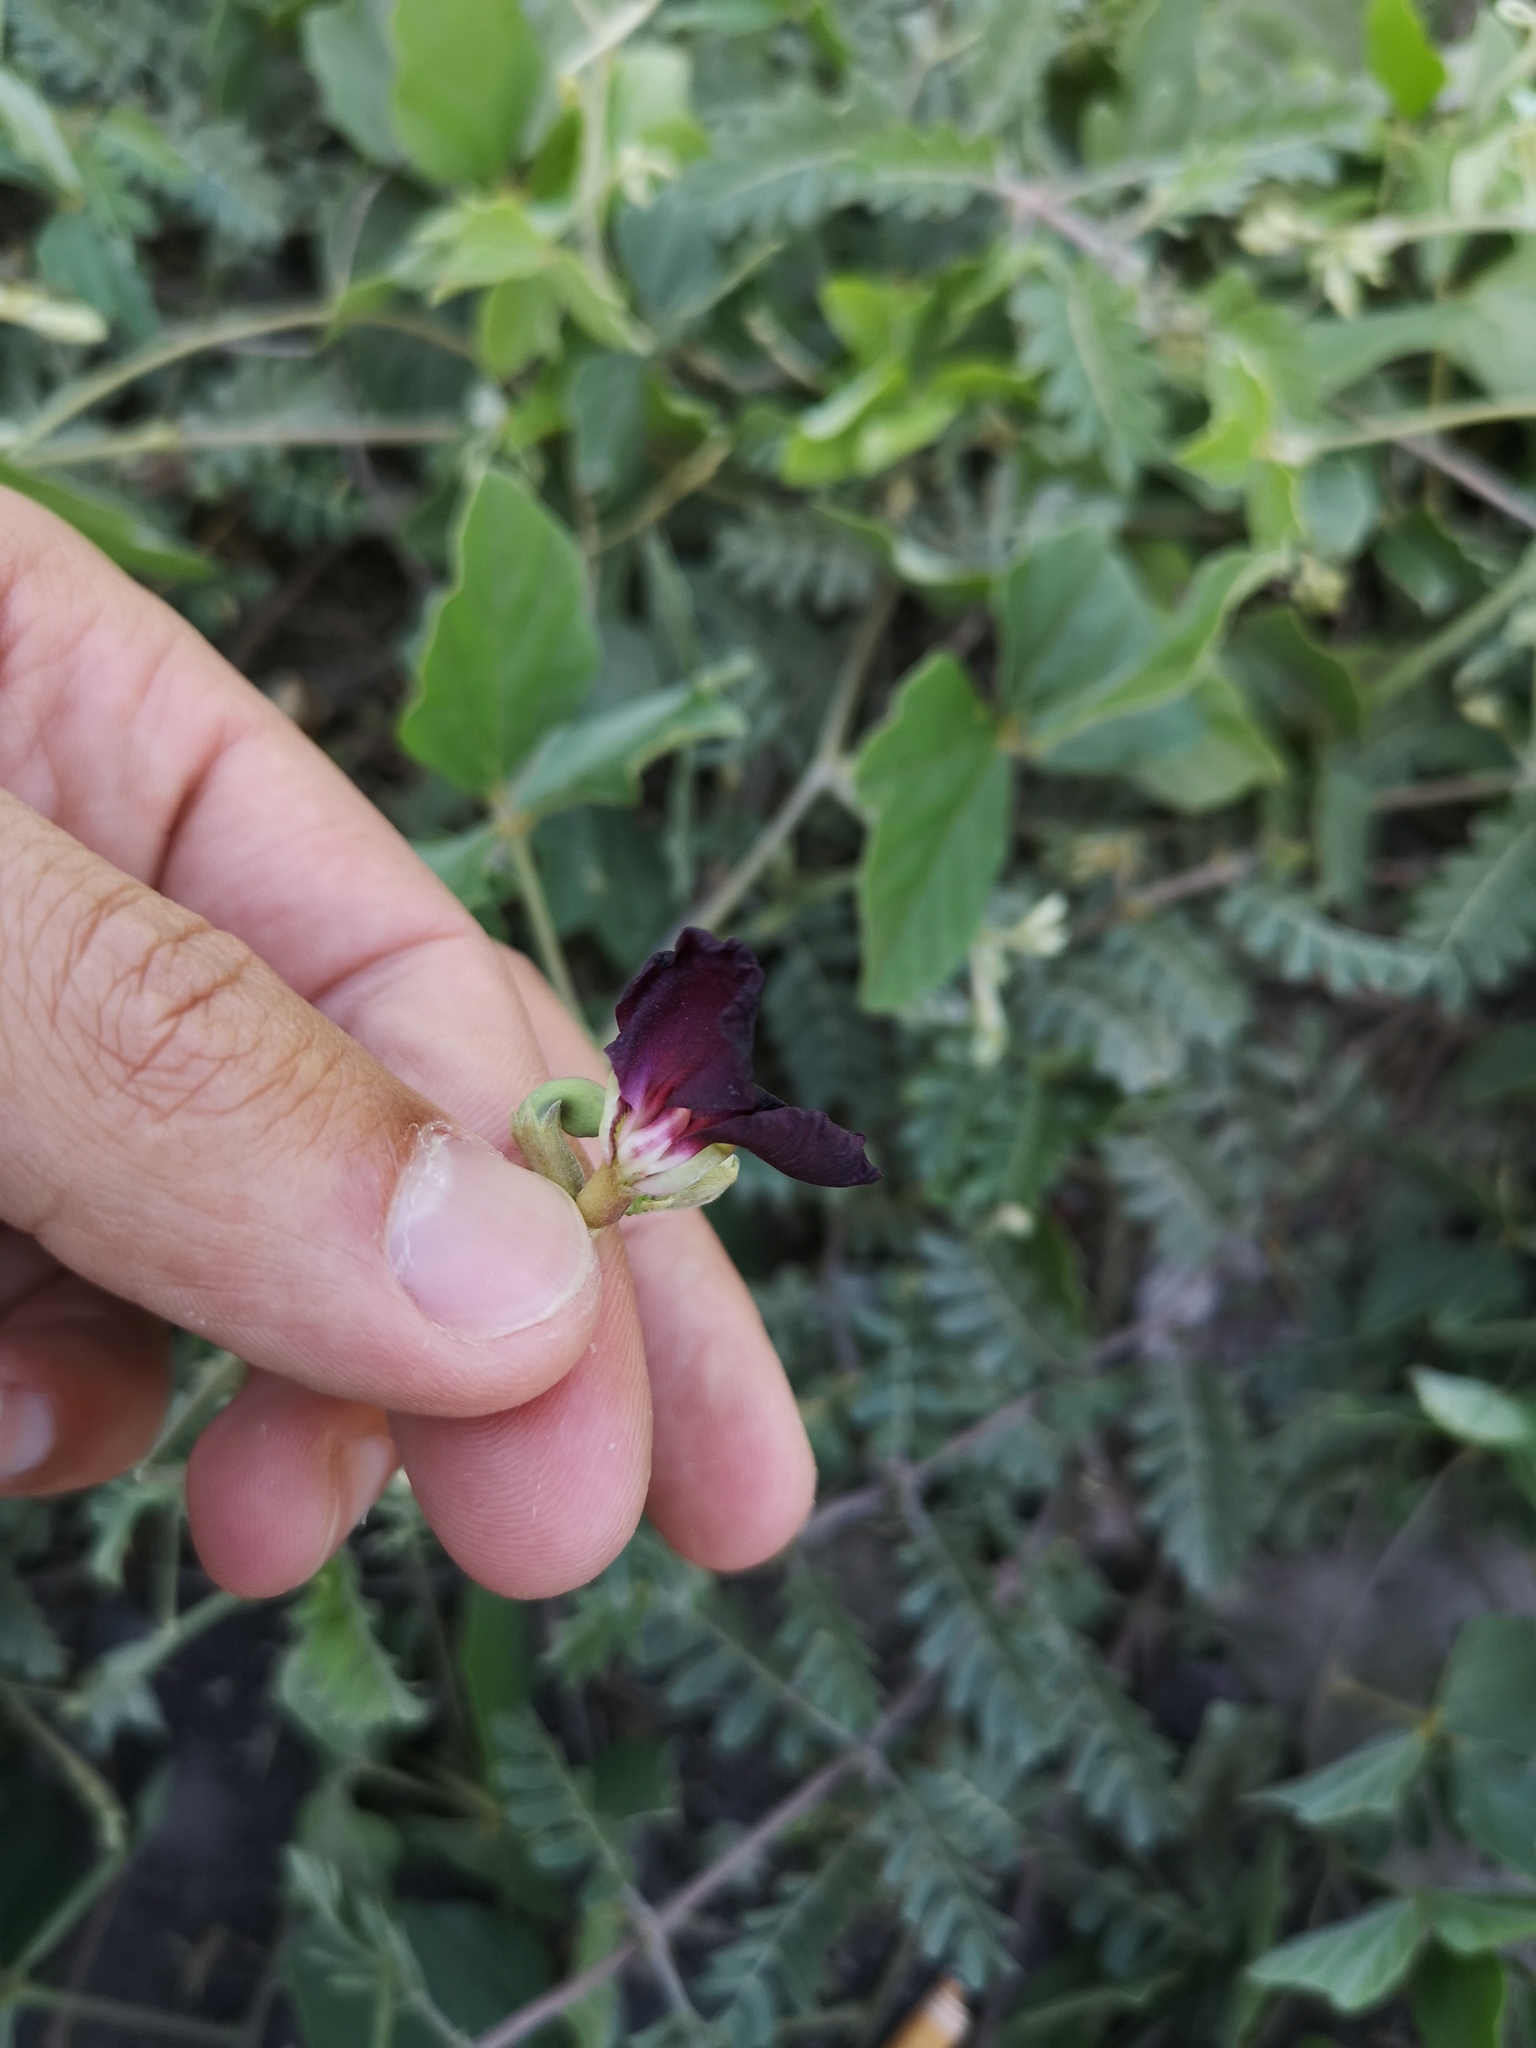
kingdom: Plantae
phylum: Tracheophyta
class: Magnoliopsida
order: Fabales
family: Fabaceae
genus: Macroptilium
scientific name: Macroptilium atropurpureum
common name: Purple bushbean
